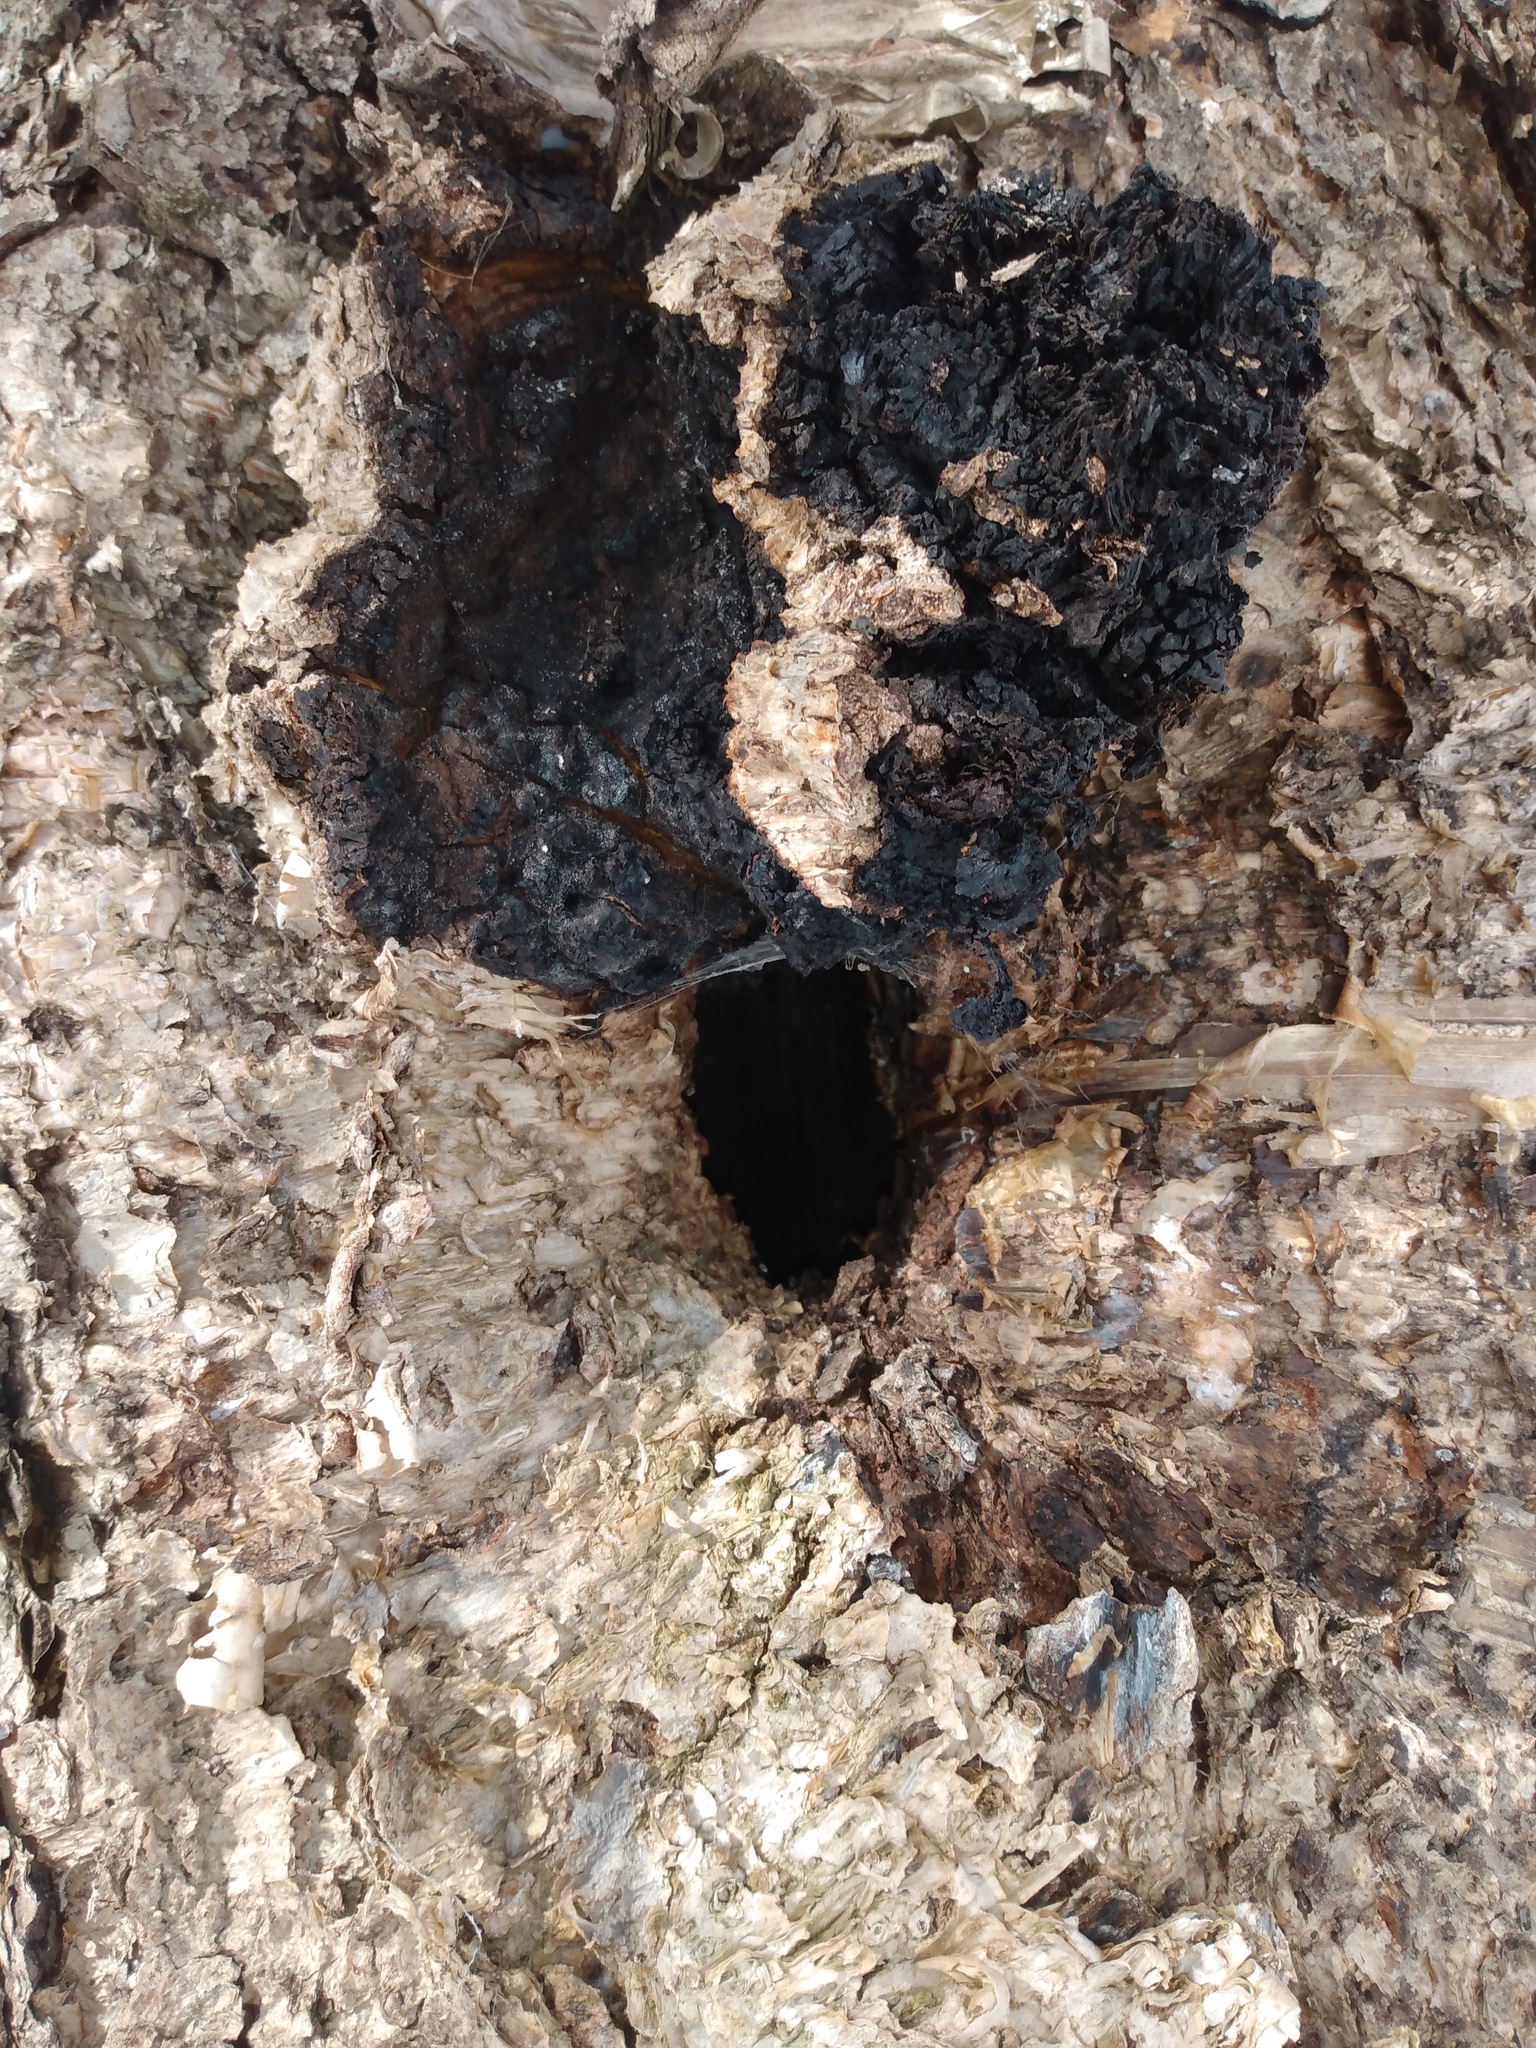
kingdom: Fungi
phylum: Basidiomycota
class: Agaricomycetes
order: Hymenochaetales
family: Hymenochaetaceae
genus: Inonotus
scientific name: Inonotus obliquus
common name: Chaga
